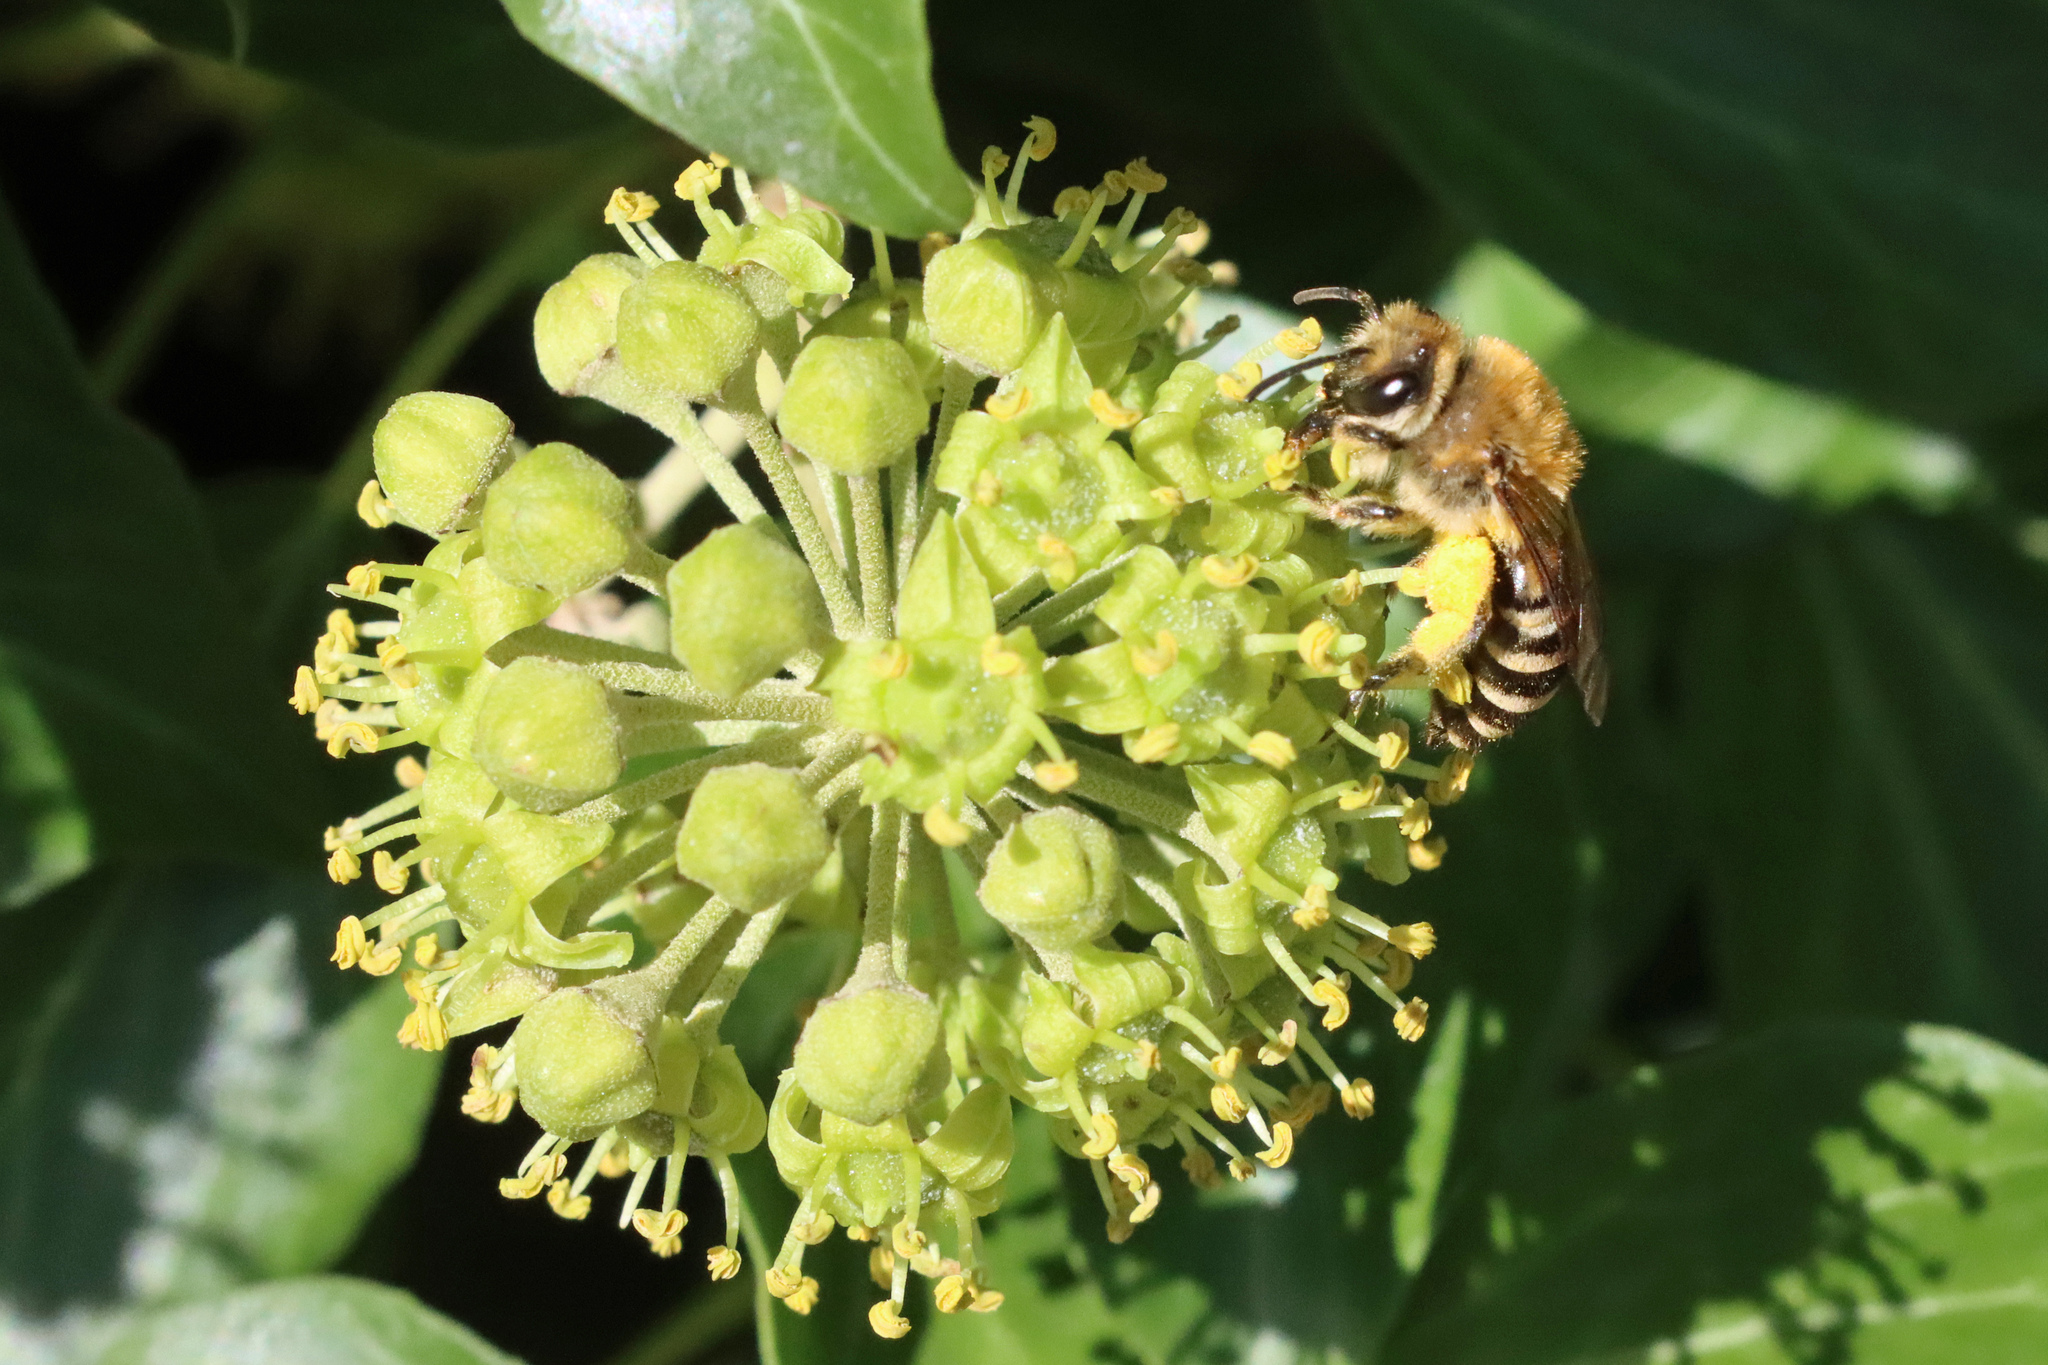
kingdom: Animalia
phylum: Arthropoda
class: Insecta
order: Hymenoptera
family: Colletidae
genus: Colletes
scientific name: Colletes hederae
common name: Ivy bee
